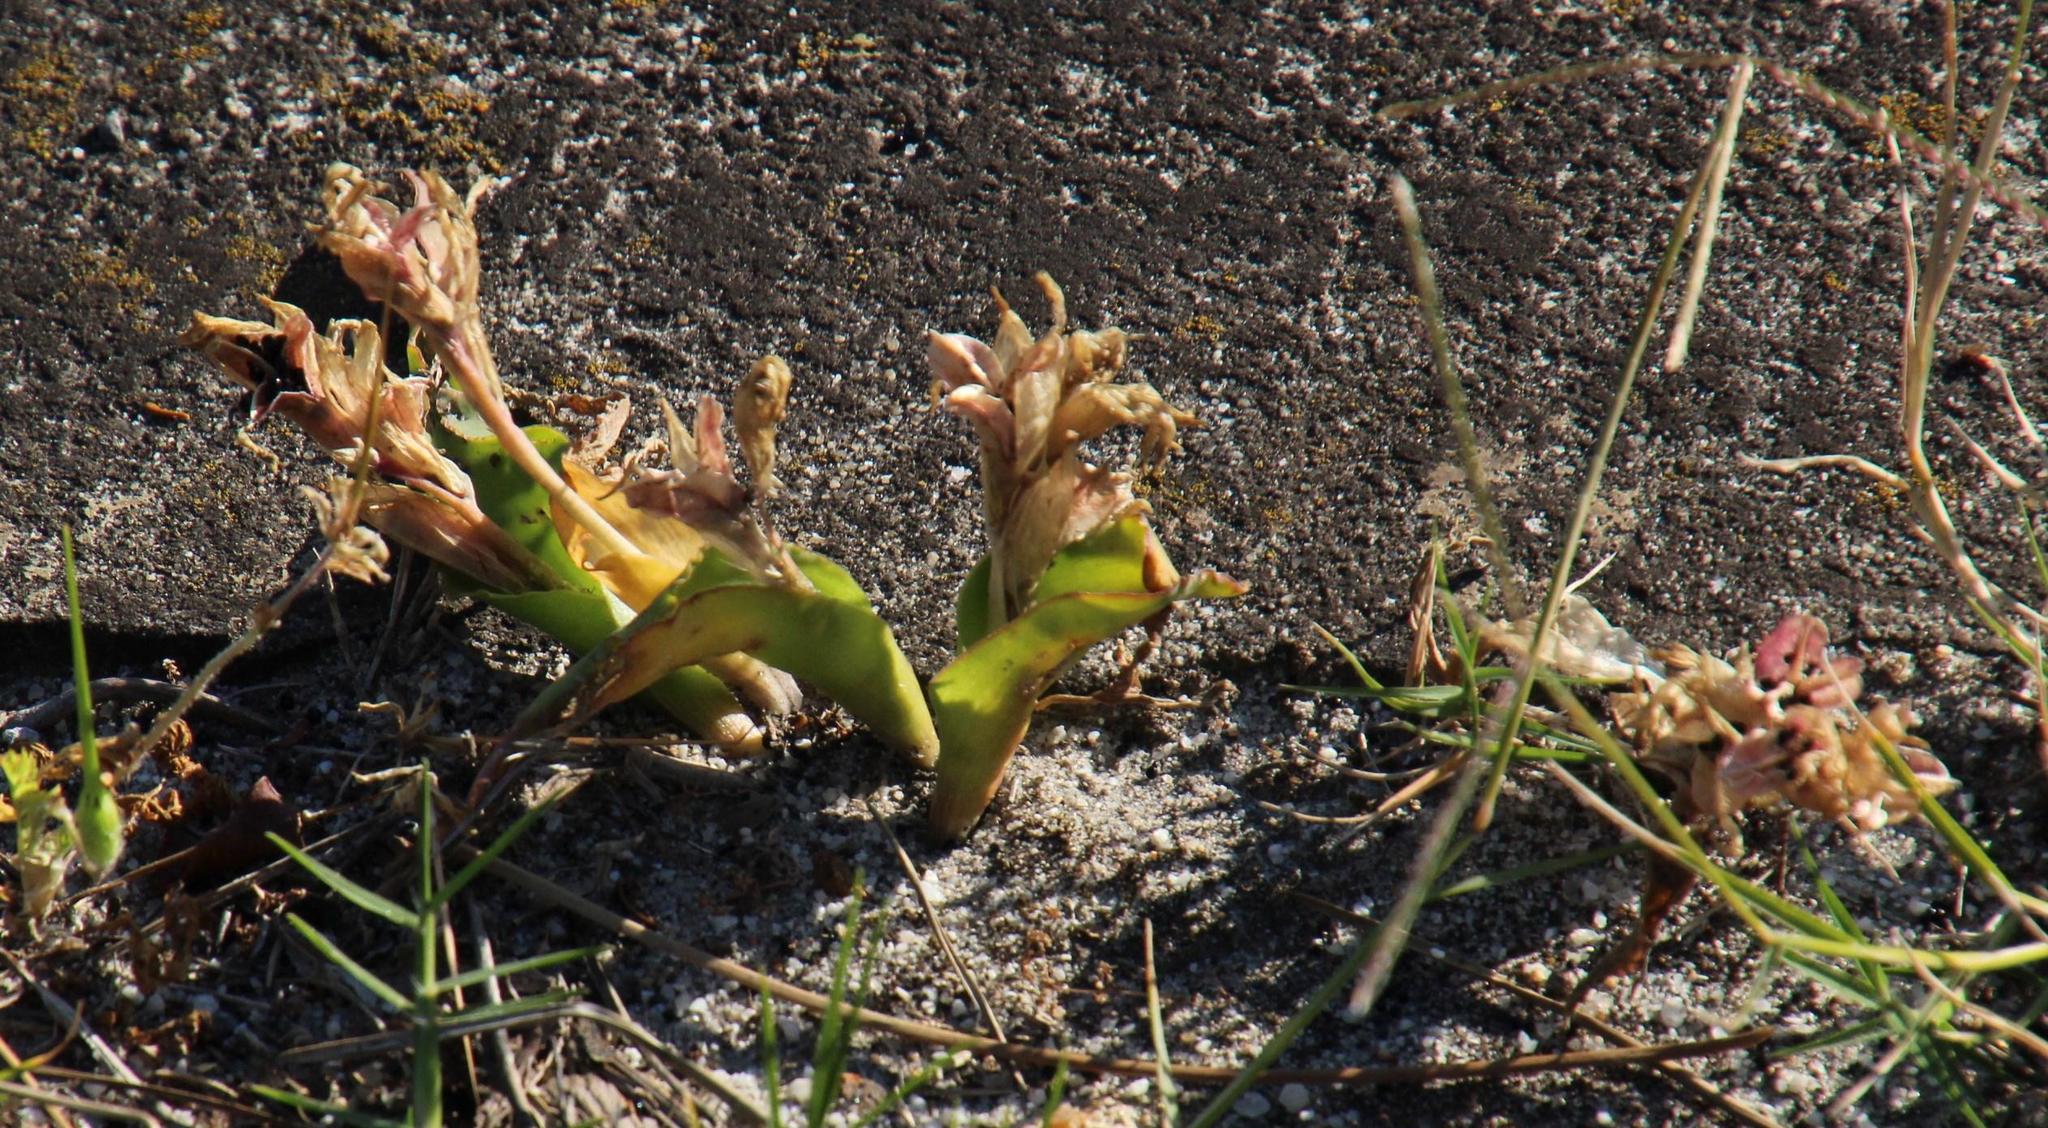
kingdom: Plantae
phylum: Tracheophyta
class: Liliopsida
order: Asparagales
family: Asparagaceae
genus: Lachenalia
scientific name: Lachenalia reflexa
